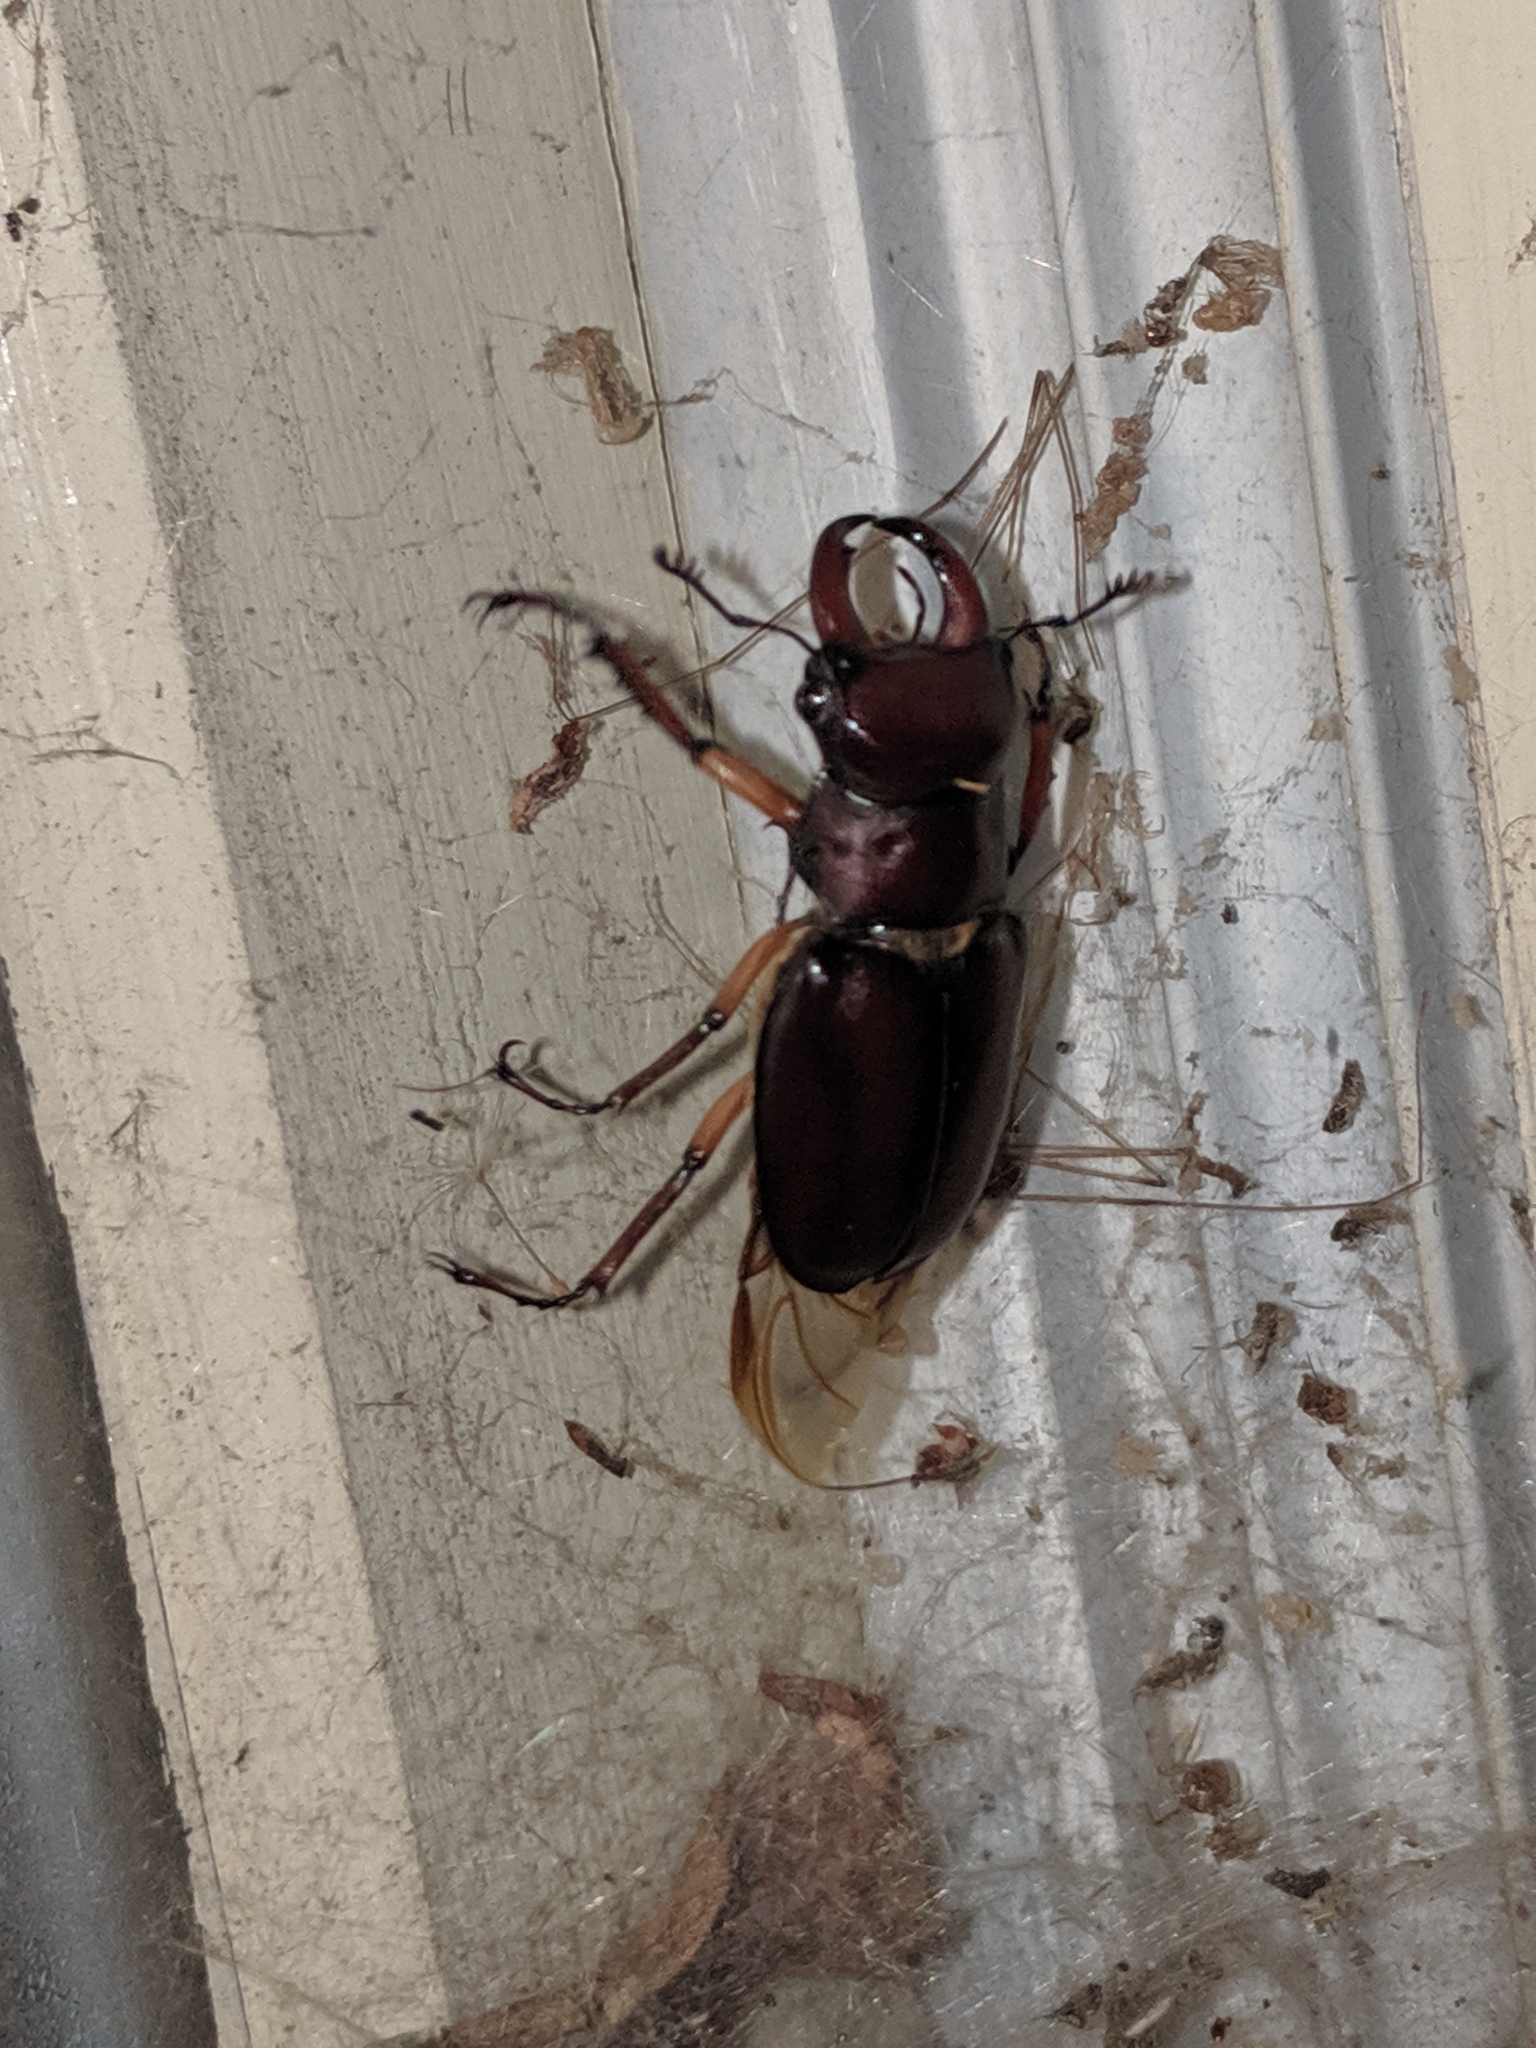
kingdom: Animalia
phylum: Arthropoda
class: Insecta
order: Coleoptera
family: Lucanidae
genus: Lucanus
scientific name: Lucanus capreolus
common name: Stag beetle
